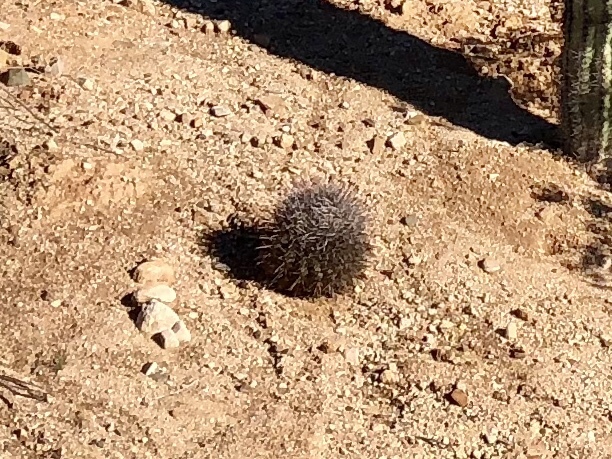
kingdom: Plantae
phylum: Tracheophyta
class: Magnoliopsida
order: Caryophyllales
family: Cactaceae
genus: Ferocactus
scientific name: Ferocactus wislizeni
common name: Candy barrel cactus
